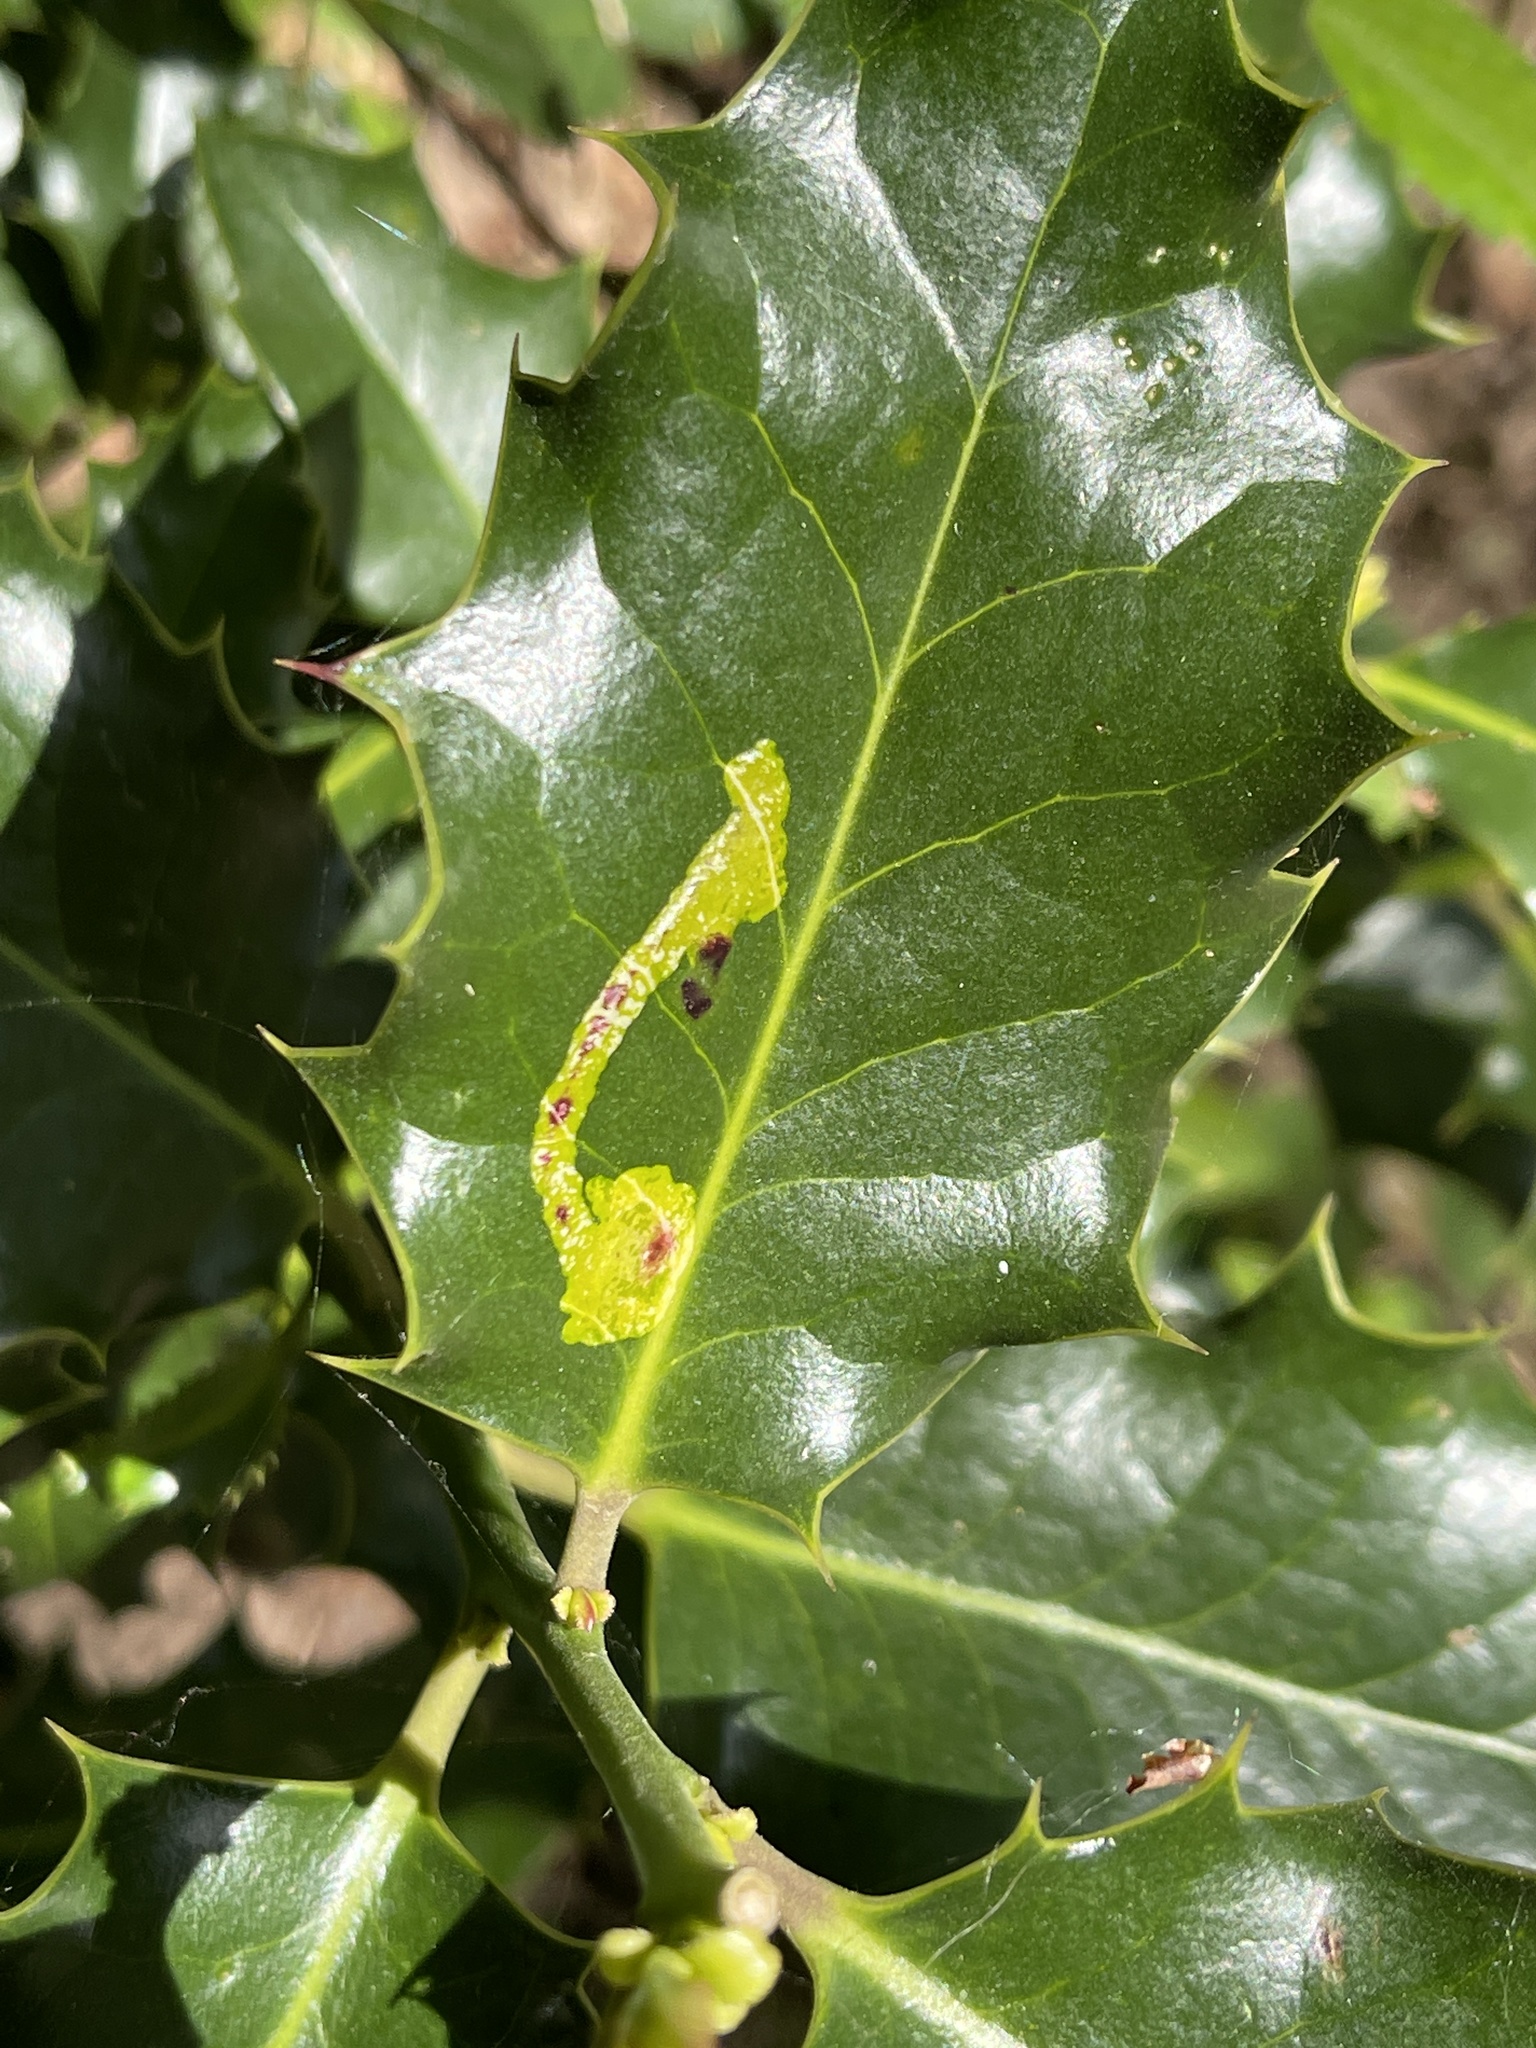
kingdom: Animalia
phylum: Arthropoda
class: Insecta
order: Diptera
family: Agromyzidae
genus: Phytomyza
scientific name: Phytomyza ilicis
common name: Holly leafminer
